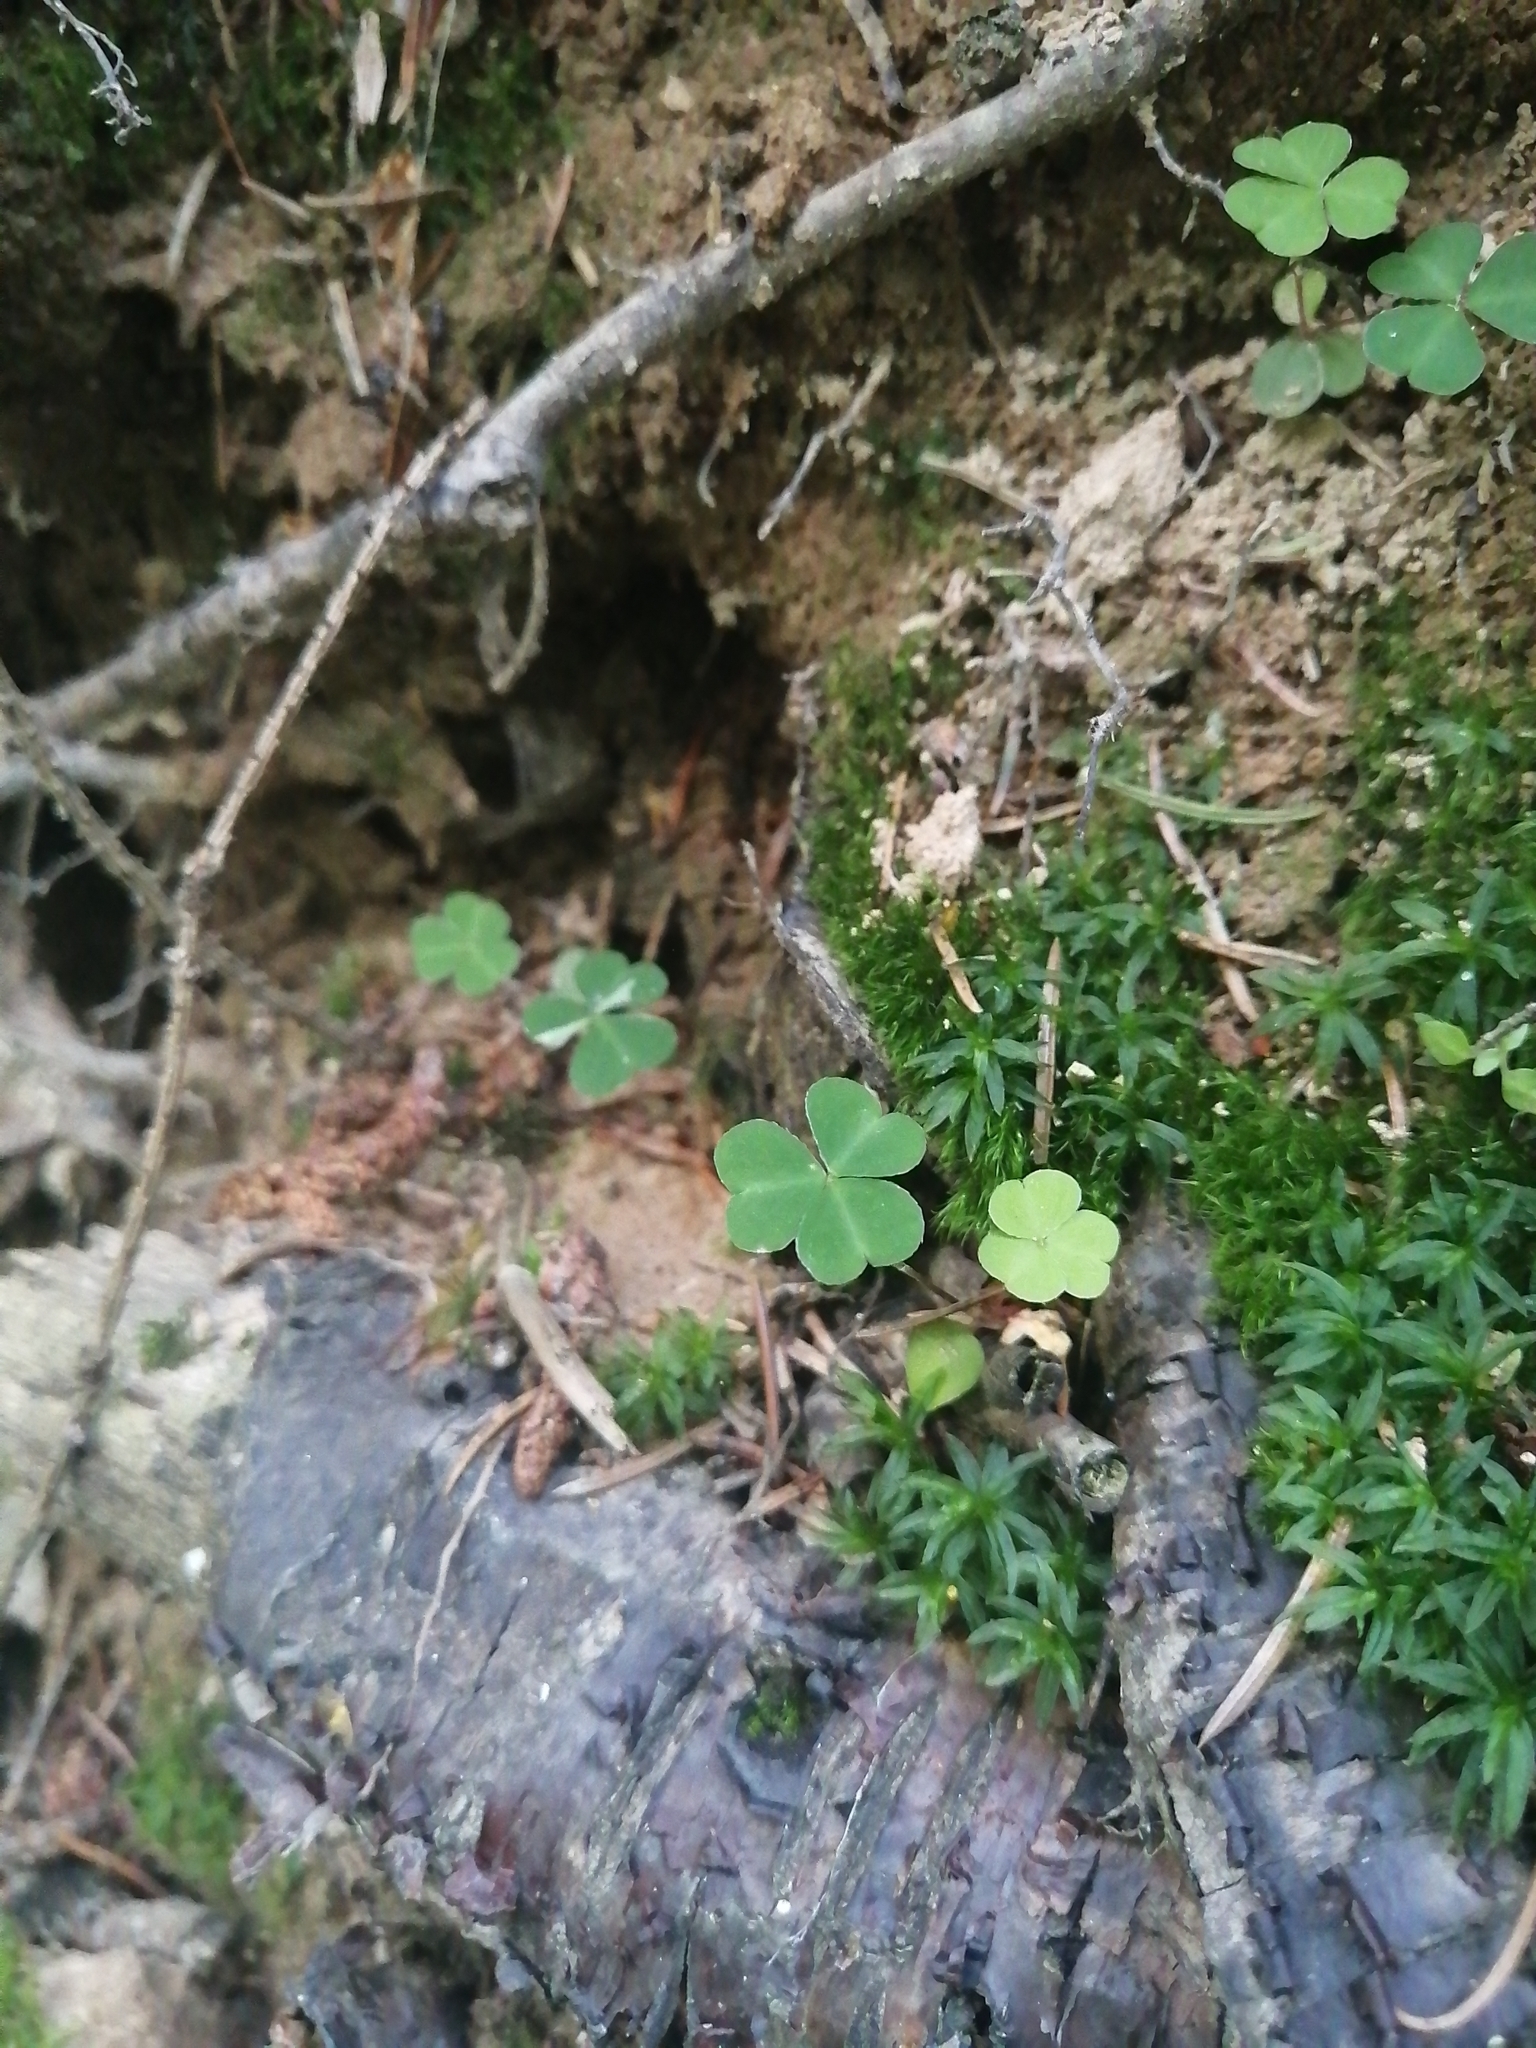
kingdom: Plantae
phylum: Tracheophyta
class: Magnoliopsida
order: Oxalidales
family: Oxalidaceae
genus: Oxalis
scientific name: Oxalis acetosella
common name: Wood-sorrel
